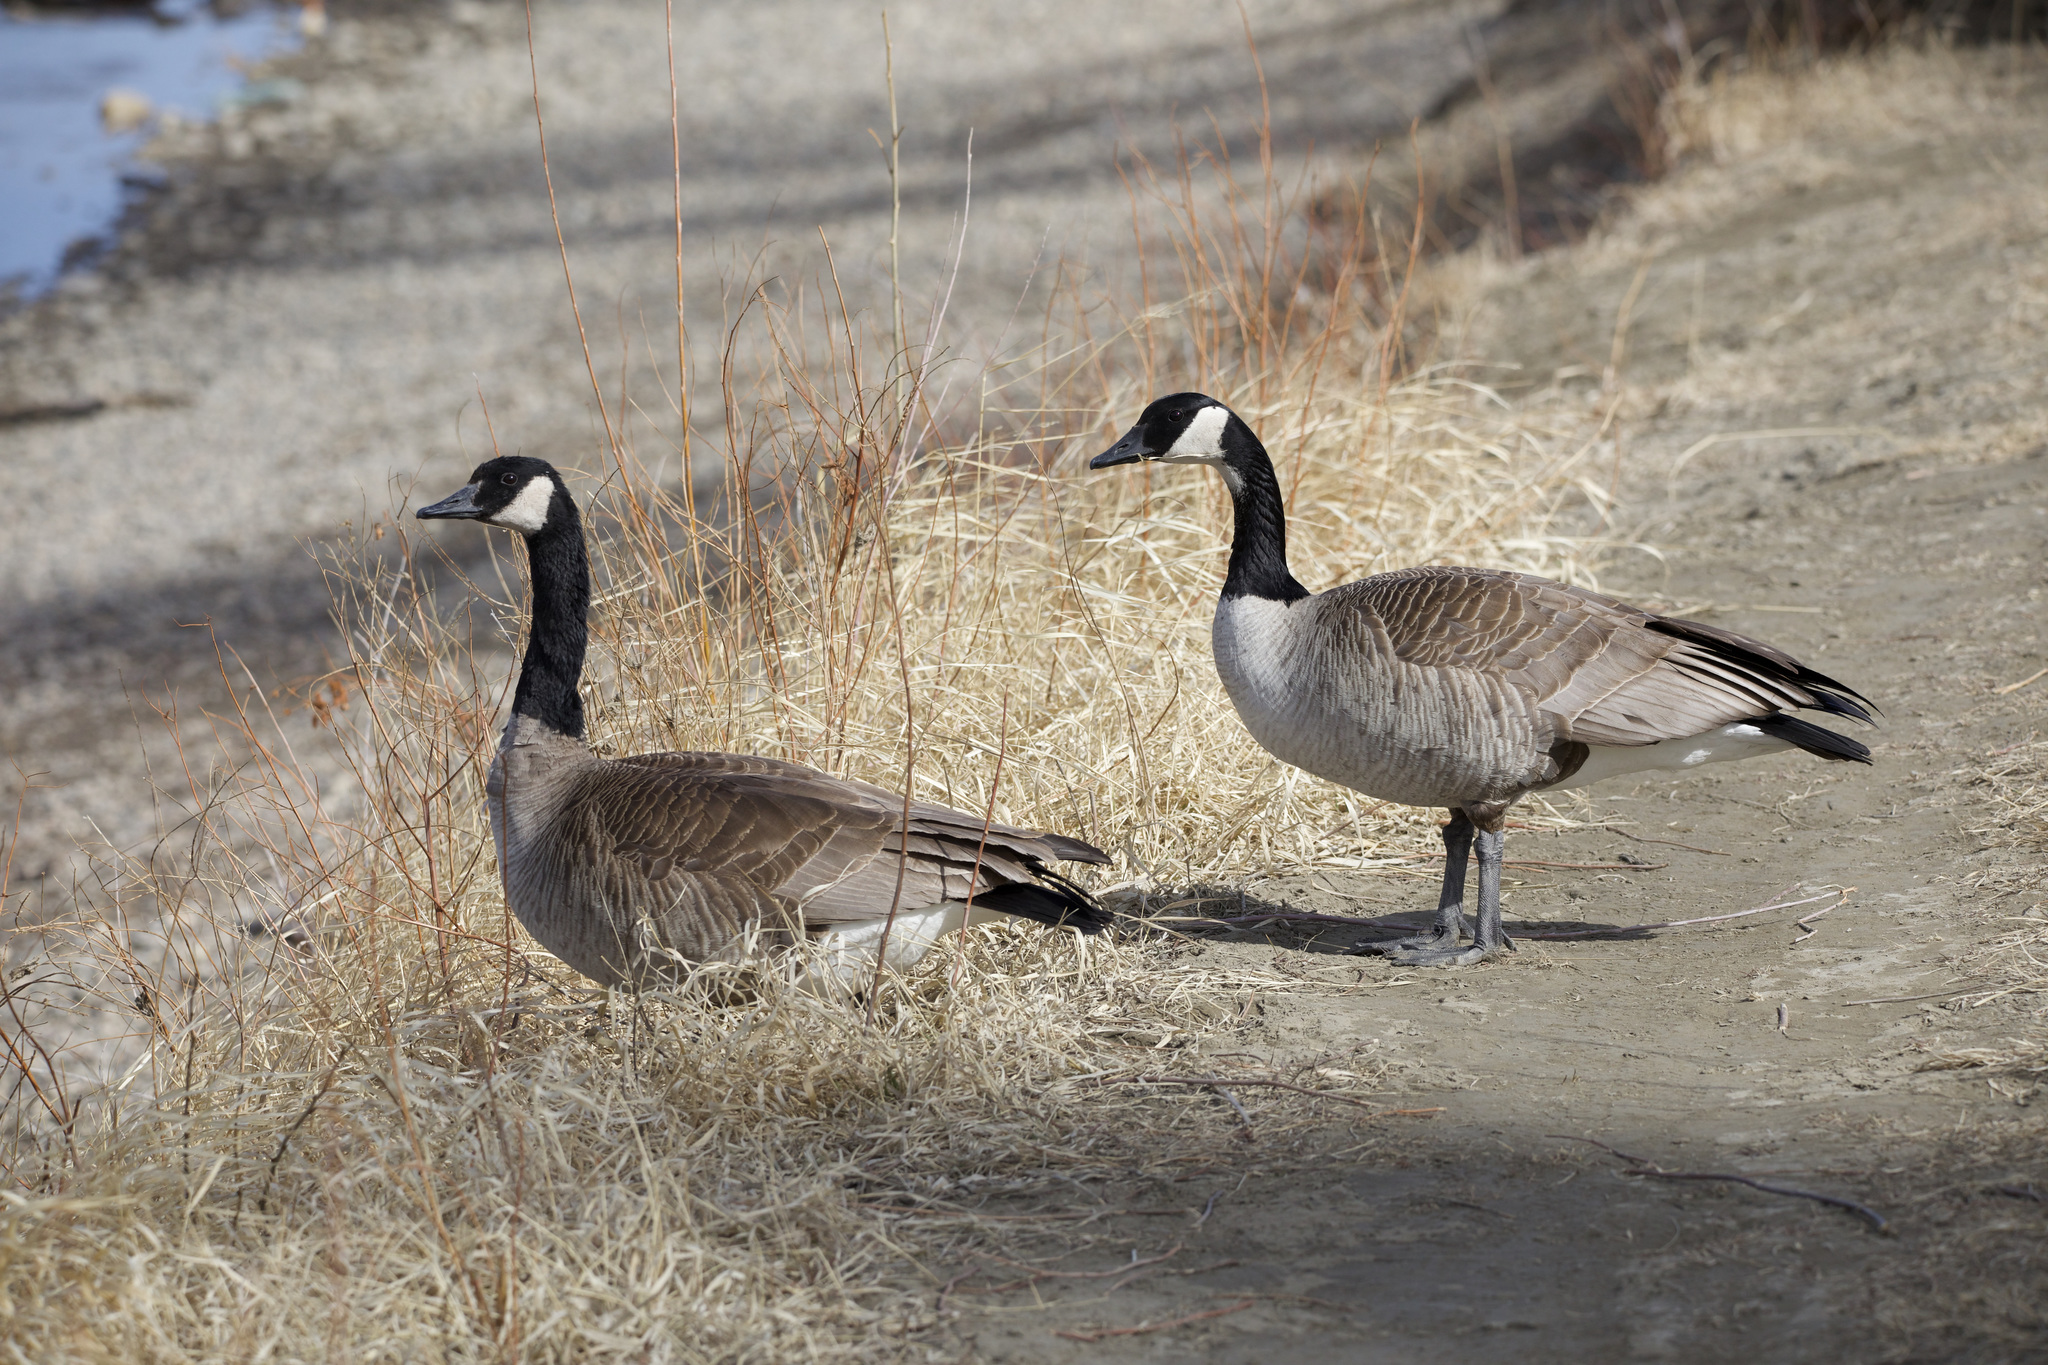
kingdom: Animalia
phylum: Chordata
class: Aves
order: Anseriformes
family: Anatidae
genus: Branta
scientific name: Branta canadensis
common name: Canada goose
